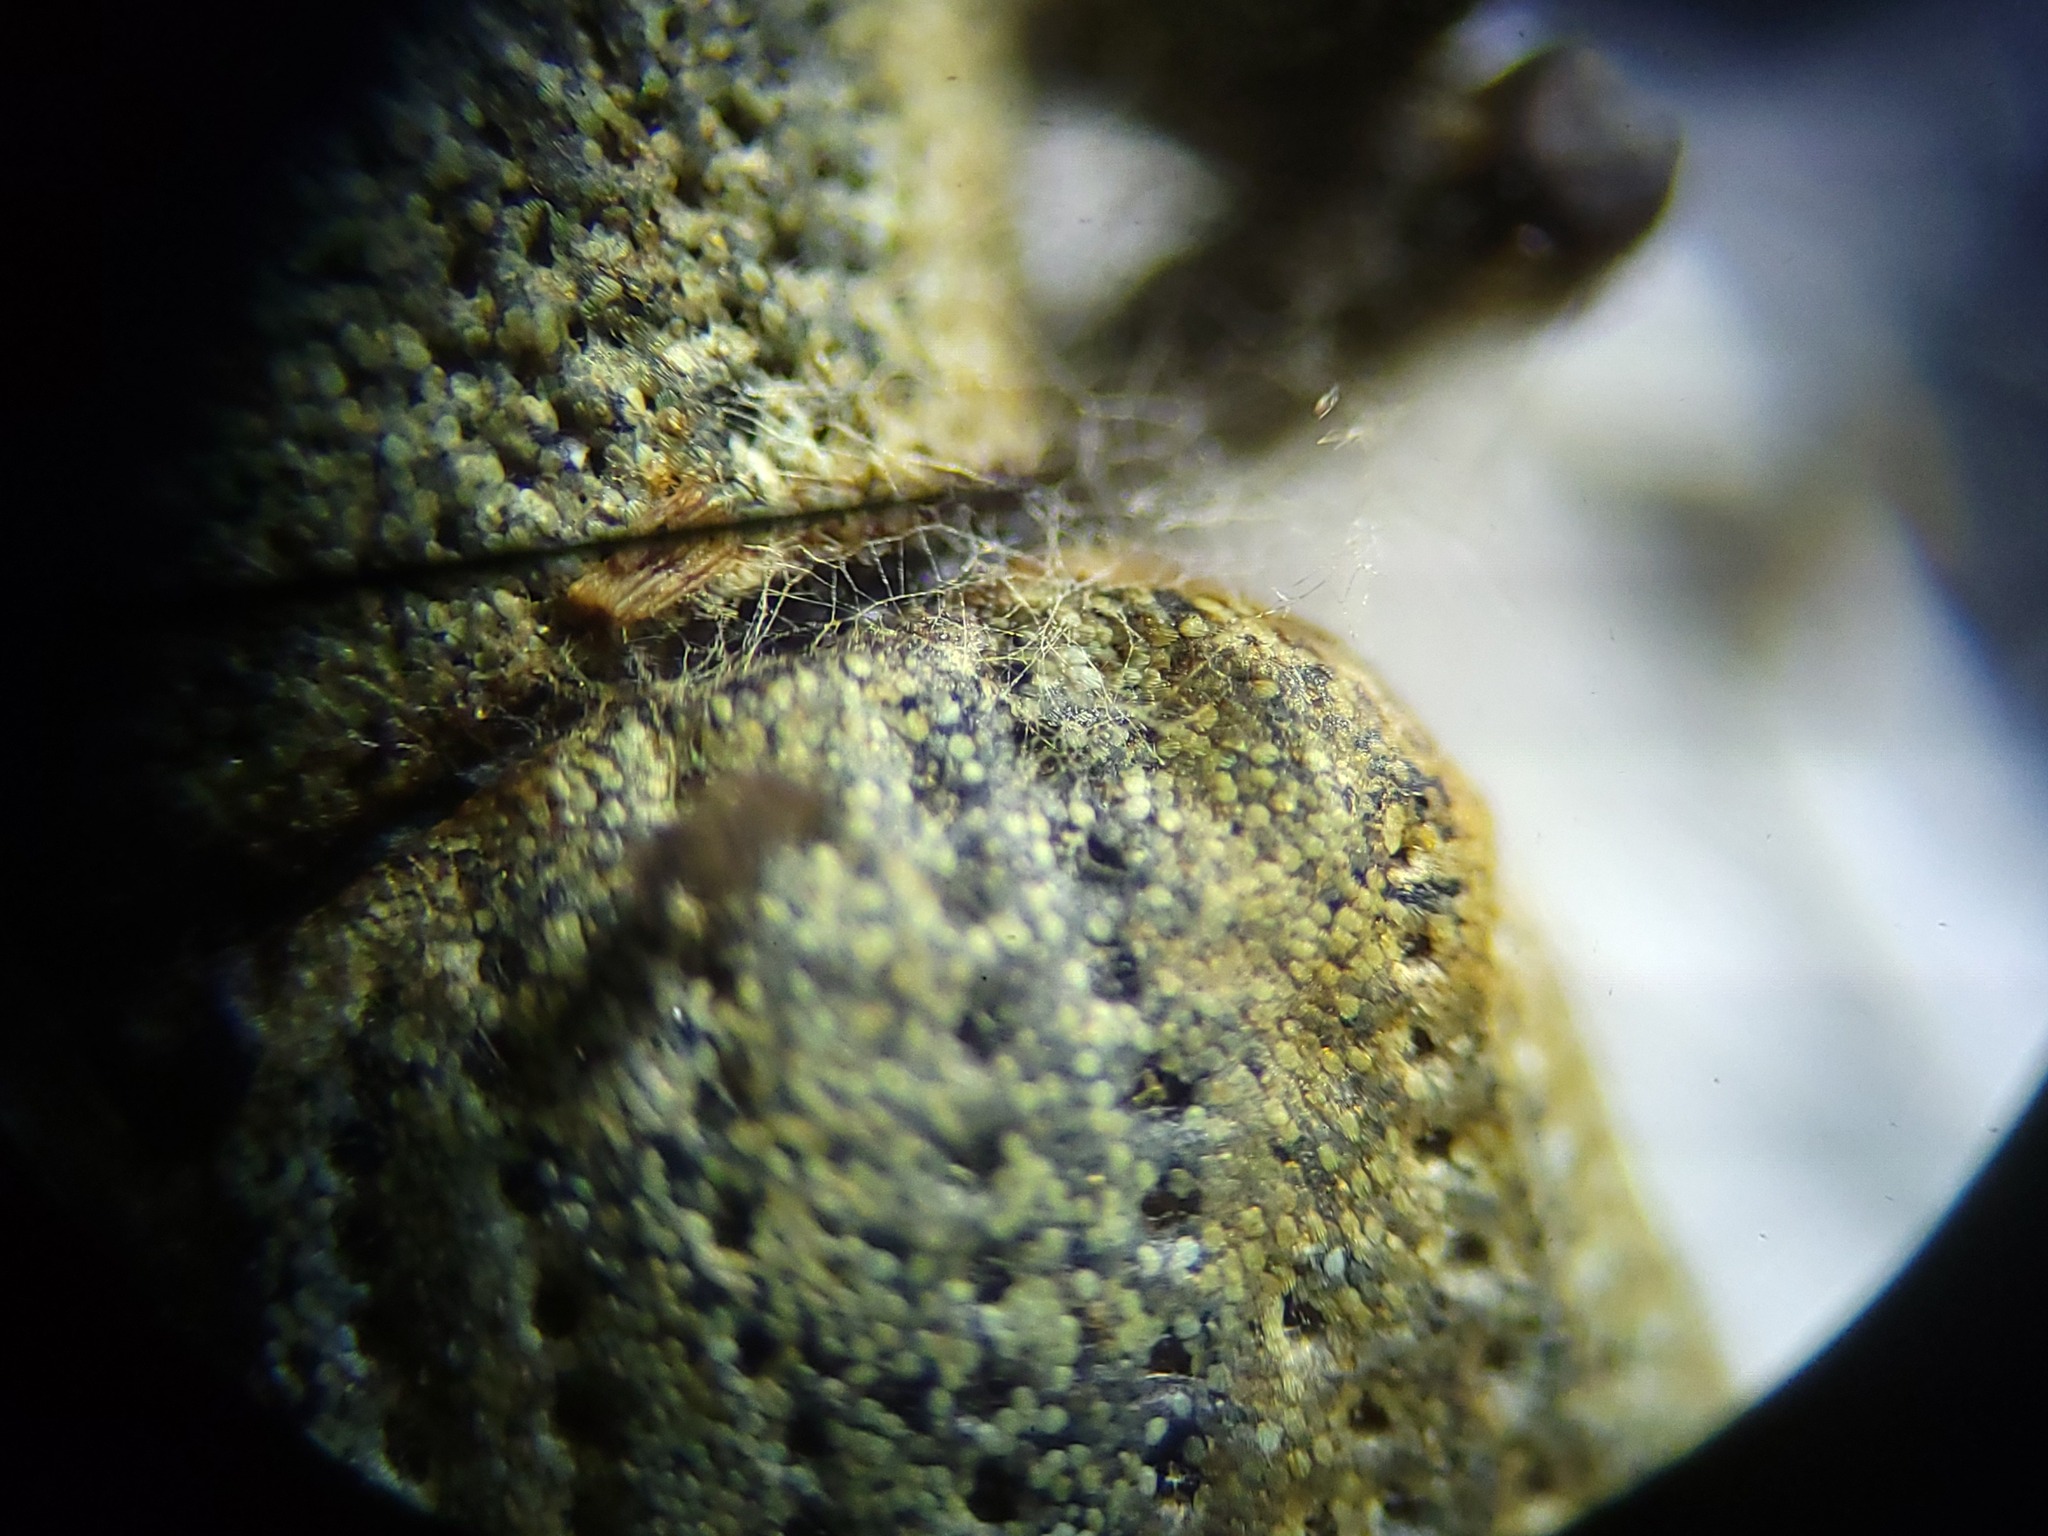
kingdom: Animalia
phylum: Arthropoda
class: Insecta
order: Coleoptera
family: Curculionidae
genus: Pachnaeus
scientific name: Pachnaeus opalus
